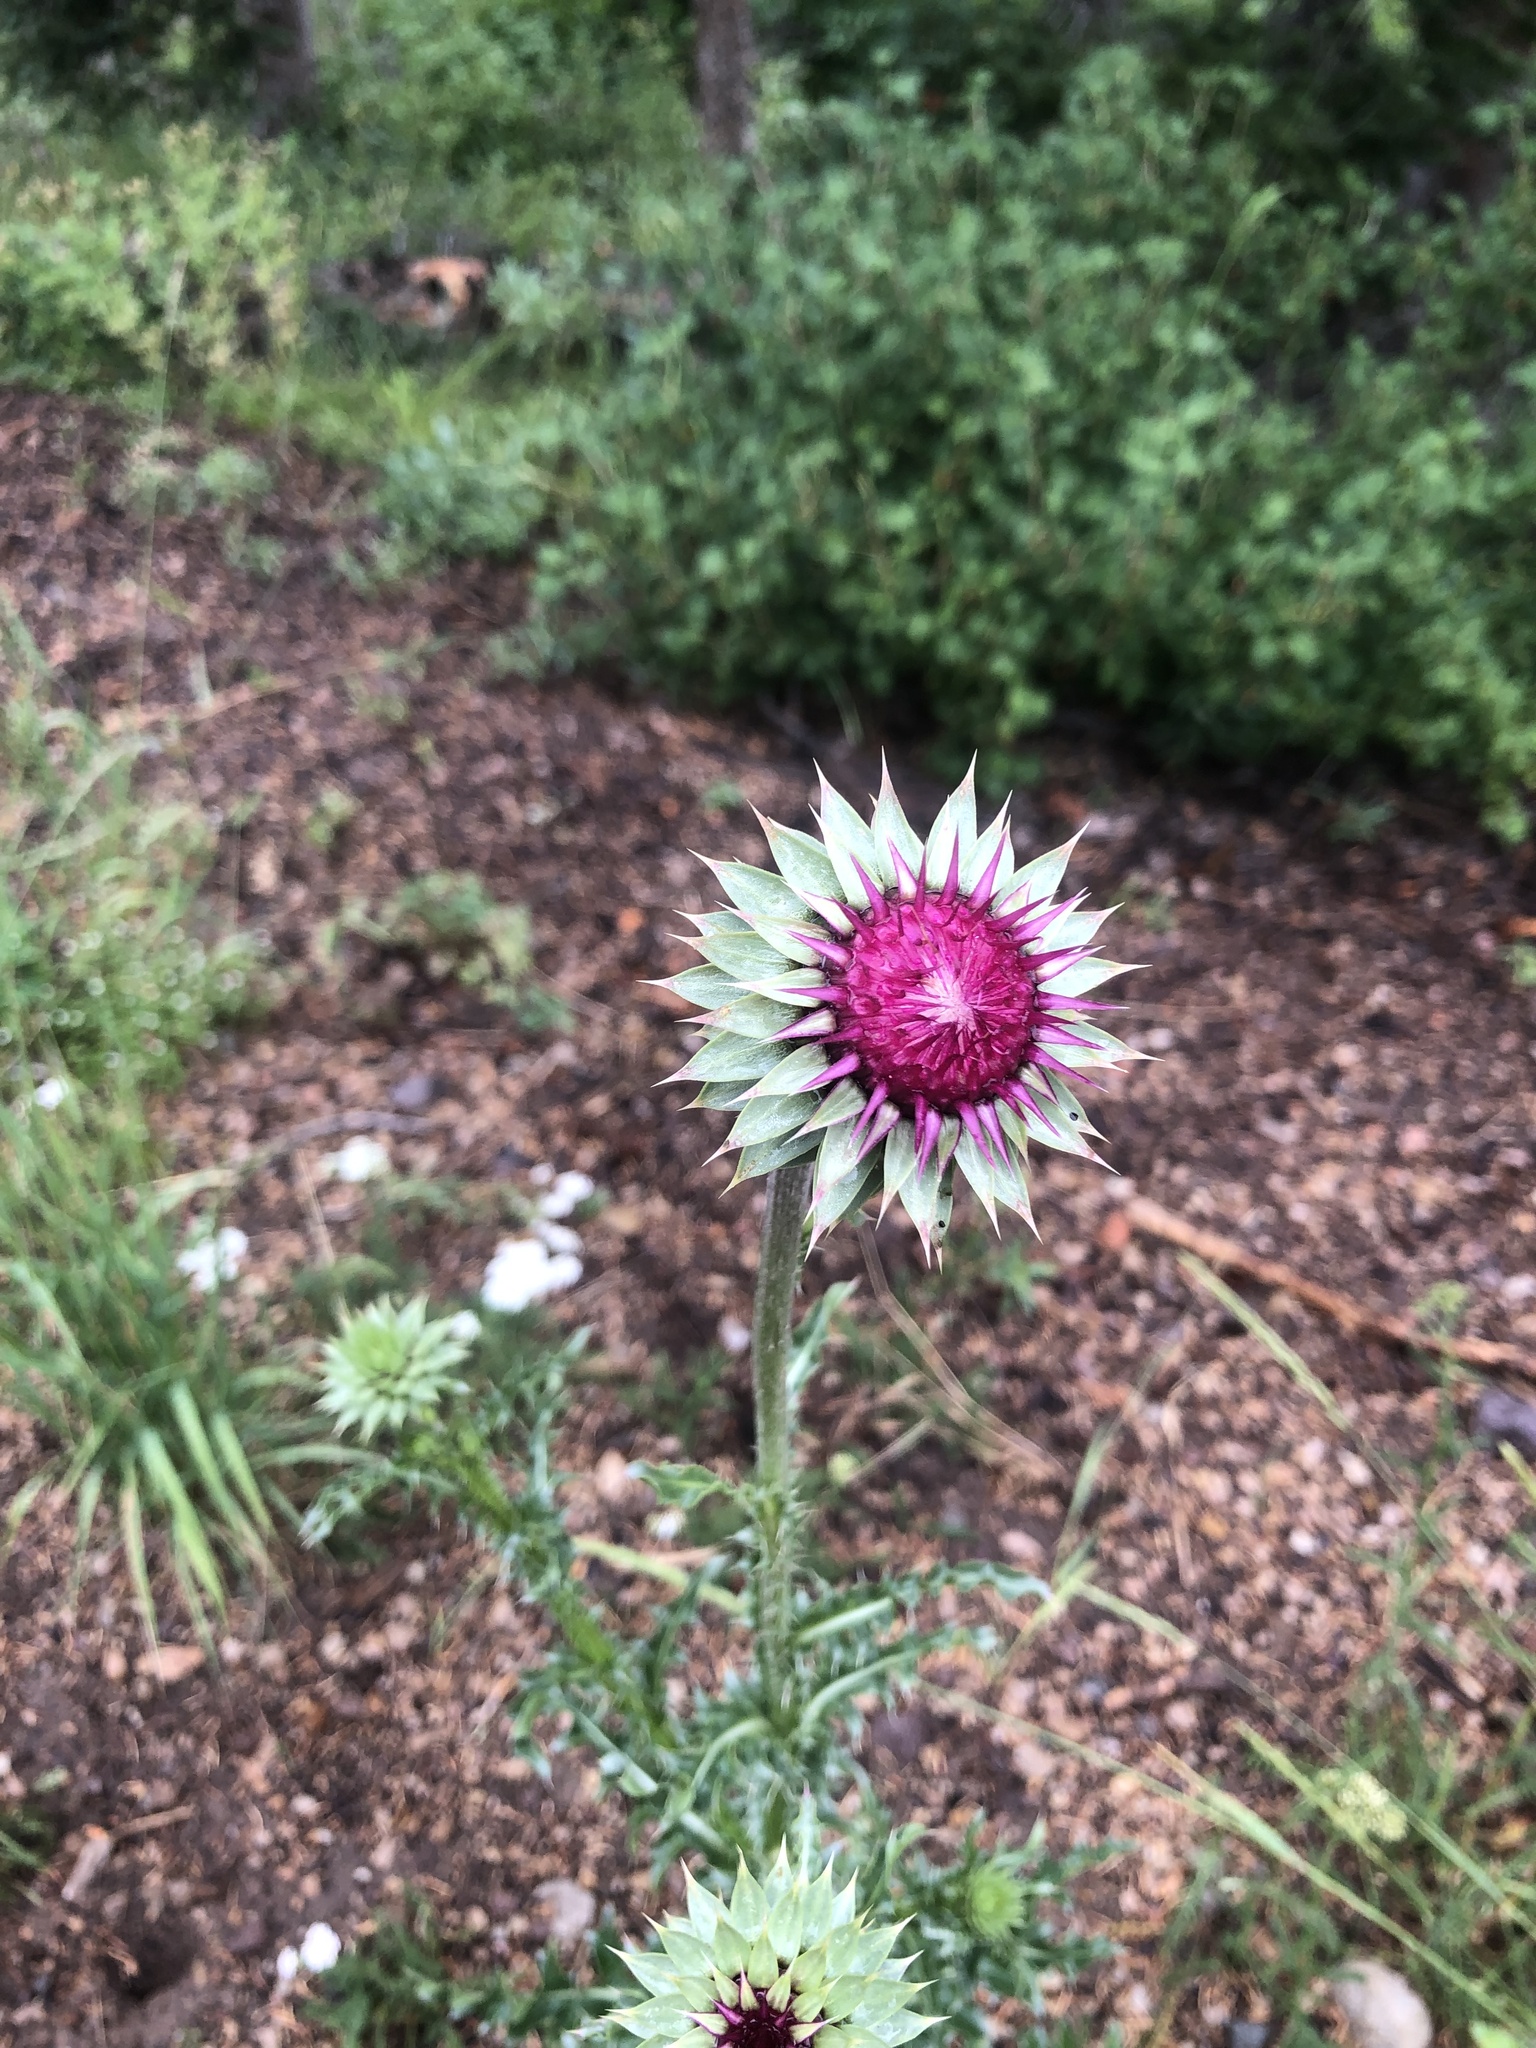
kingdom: Plantae
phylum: Tracheophyta
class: Magnoliopsida
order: Asterales
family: Asteraceae
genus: Carduus
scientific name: Carduus nutans
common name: Musk thistle
